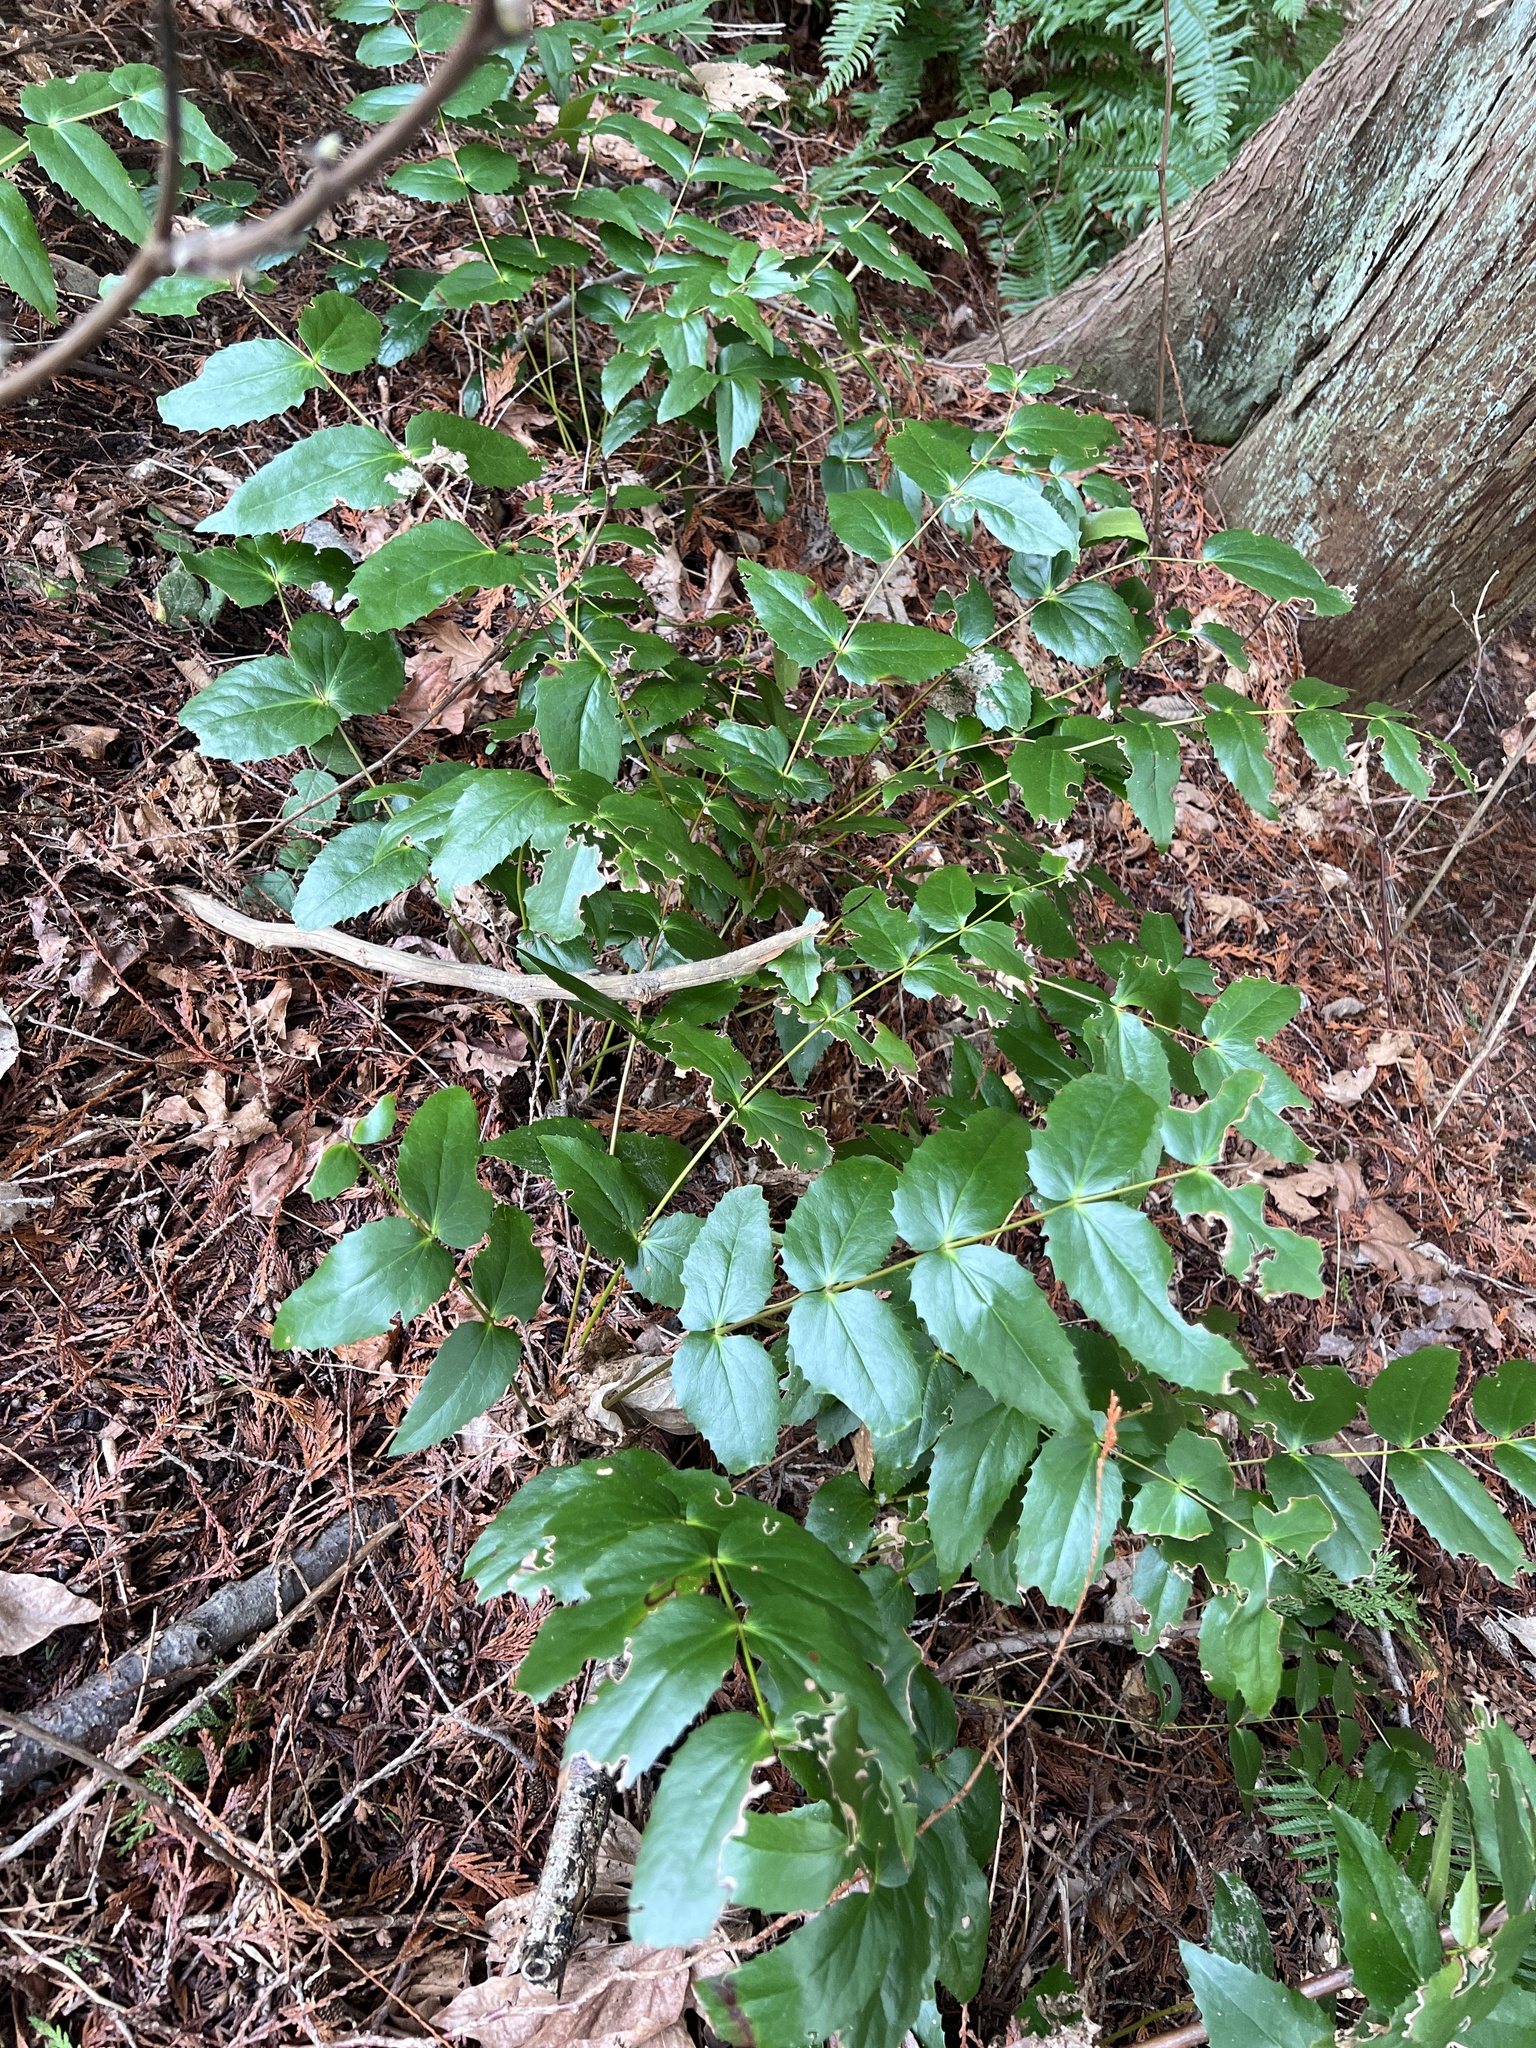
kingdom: Plantae
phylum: Tracheophyta
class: Magnoliopsida
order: Ranunculales
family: Berberidaceae
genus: Mahonia
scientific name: Mahonia nervosa
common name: Cascade oregon-grape
